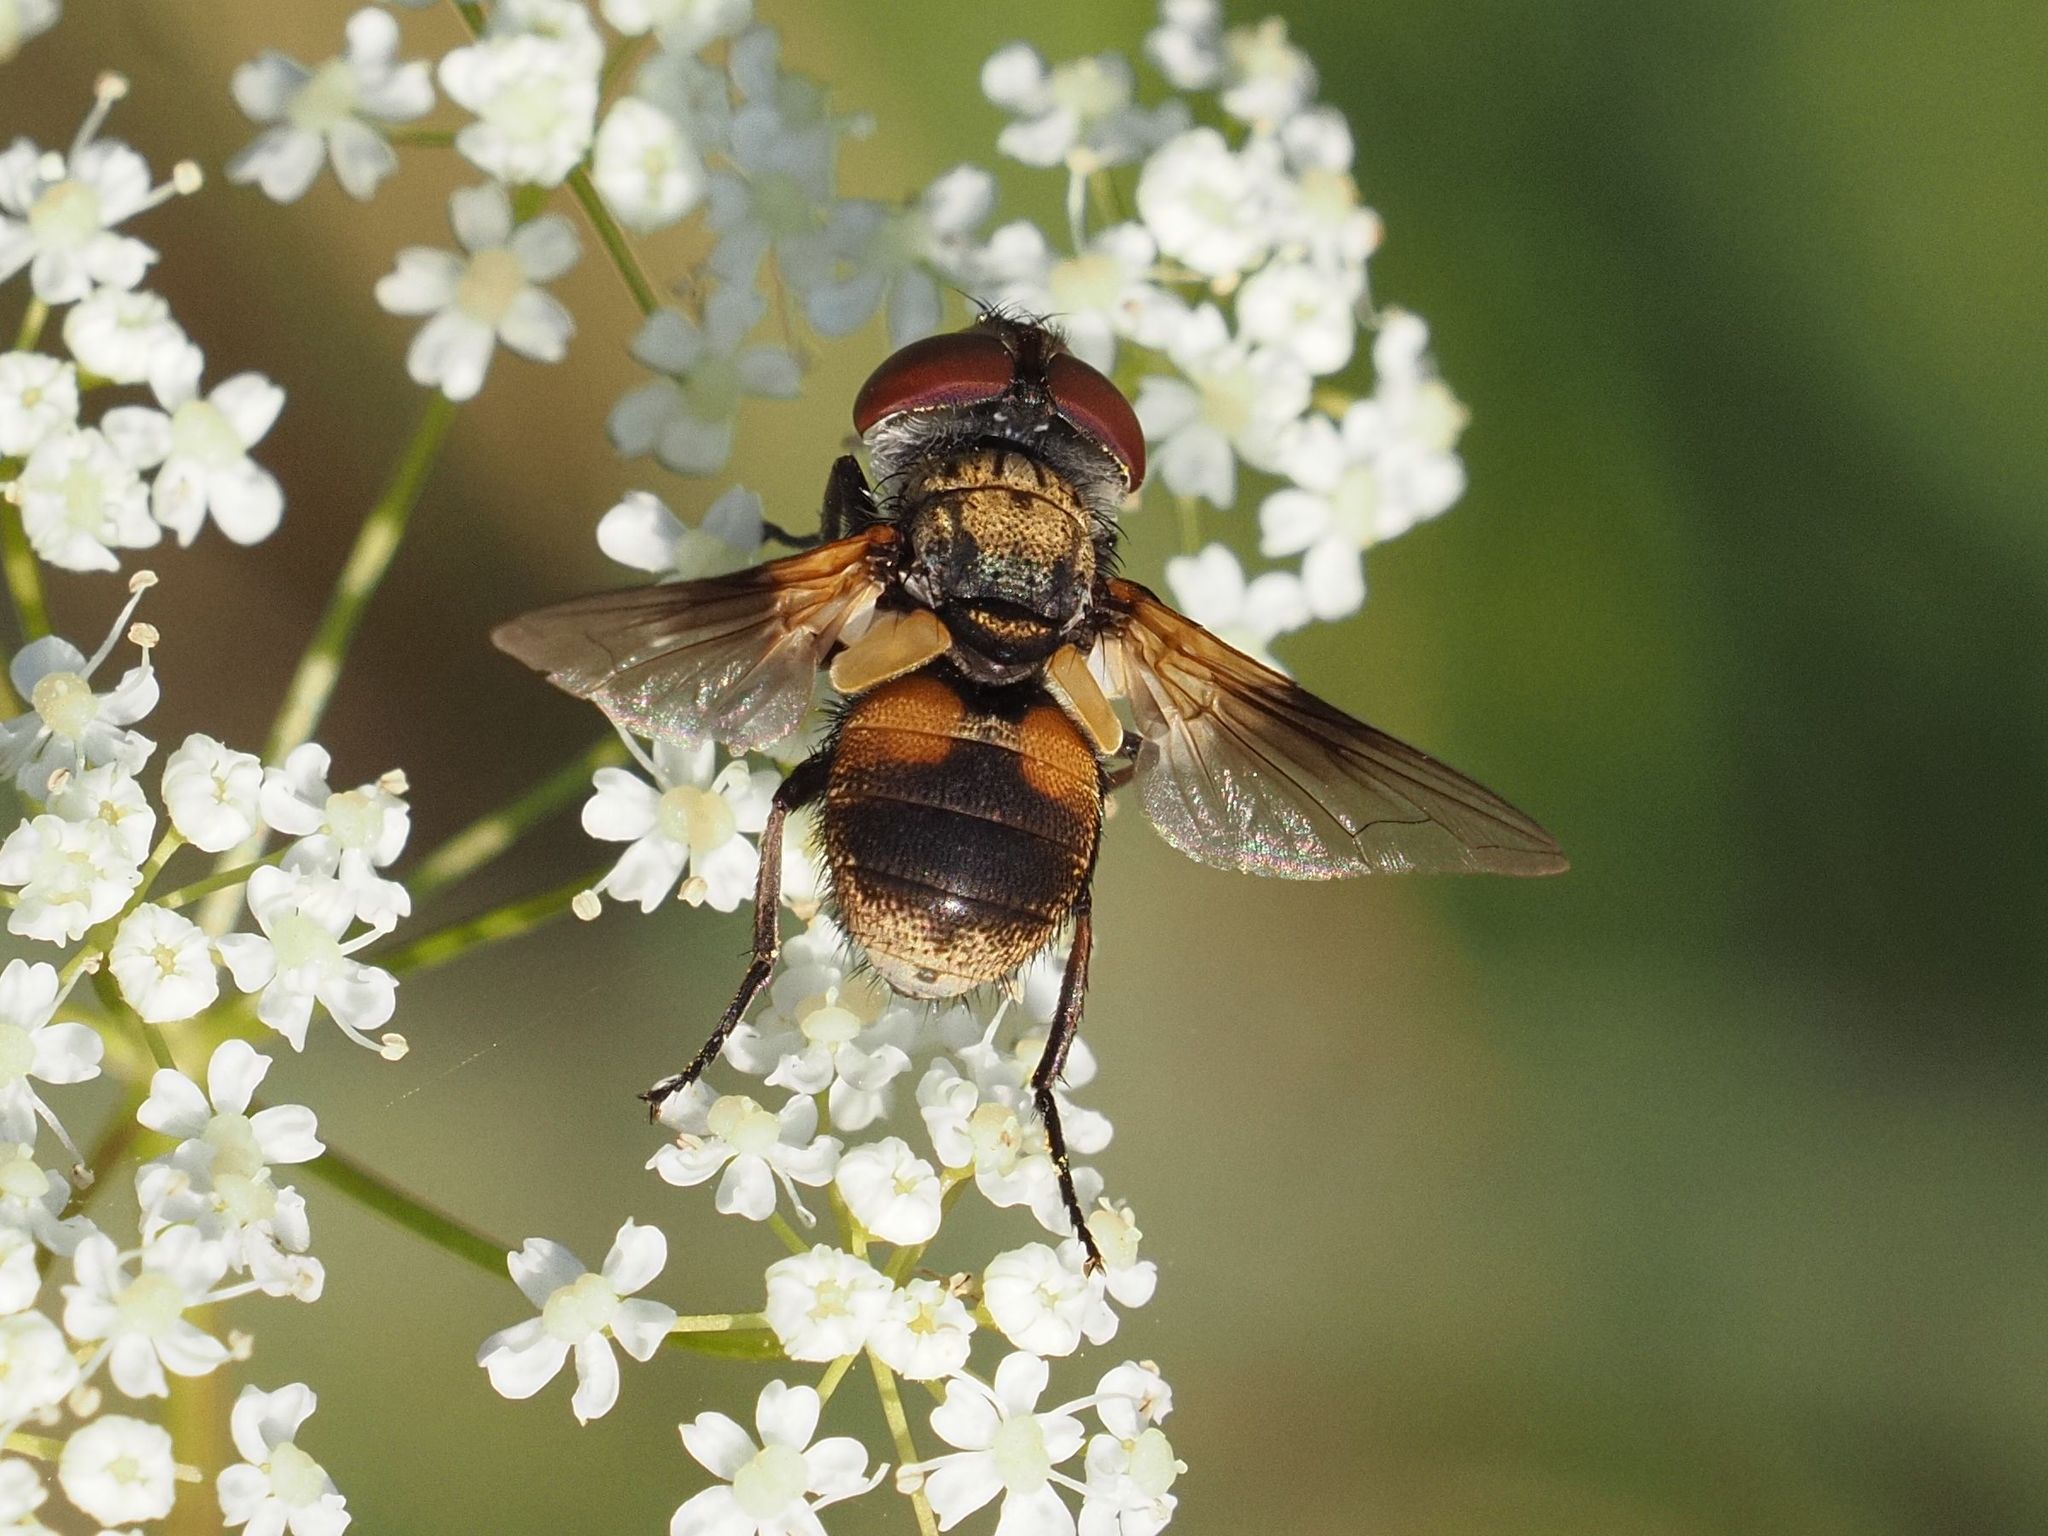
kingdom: Animalia
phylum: Arthropoda
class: Insecta
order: Diptera
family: Tachinidae
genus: Ectophasia
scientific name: Ectophasia crassipennis
